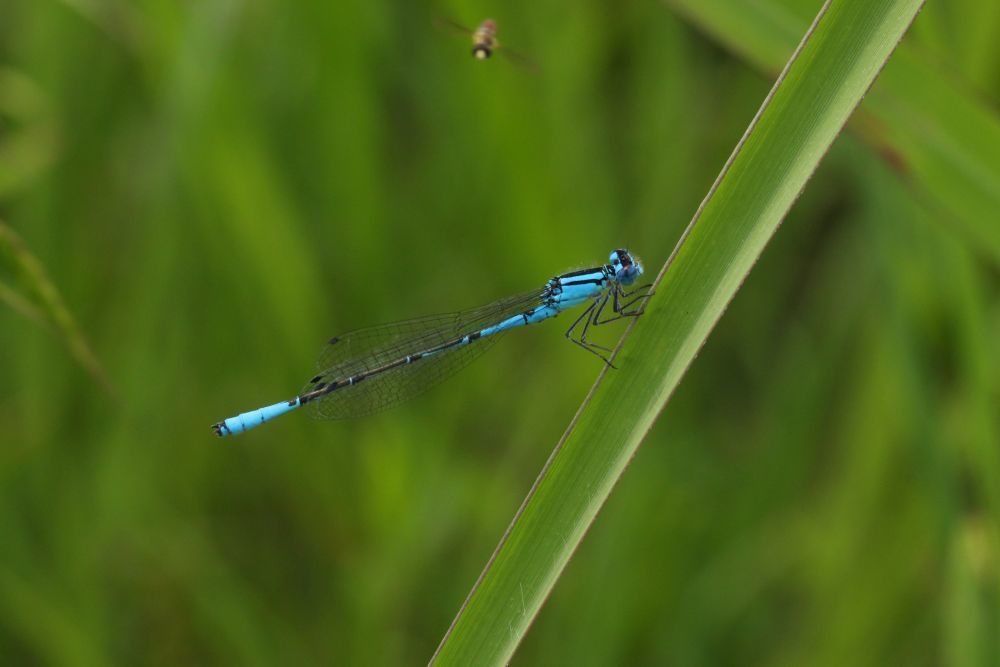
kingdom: Animalia
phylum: Arthropoda
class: Insecta
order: Odonata
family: Coenagrionidae
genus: Enallagma
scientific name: Enallagma aspersum
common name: Azure bluet
